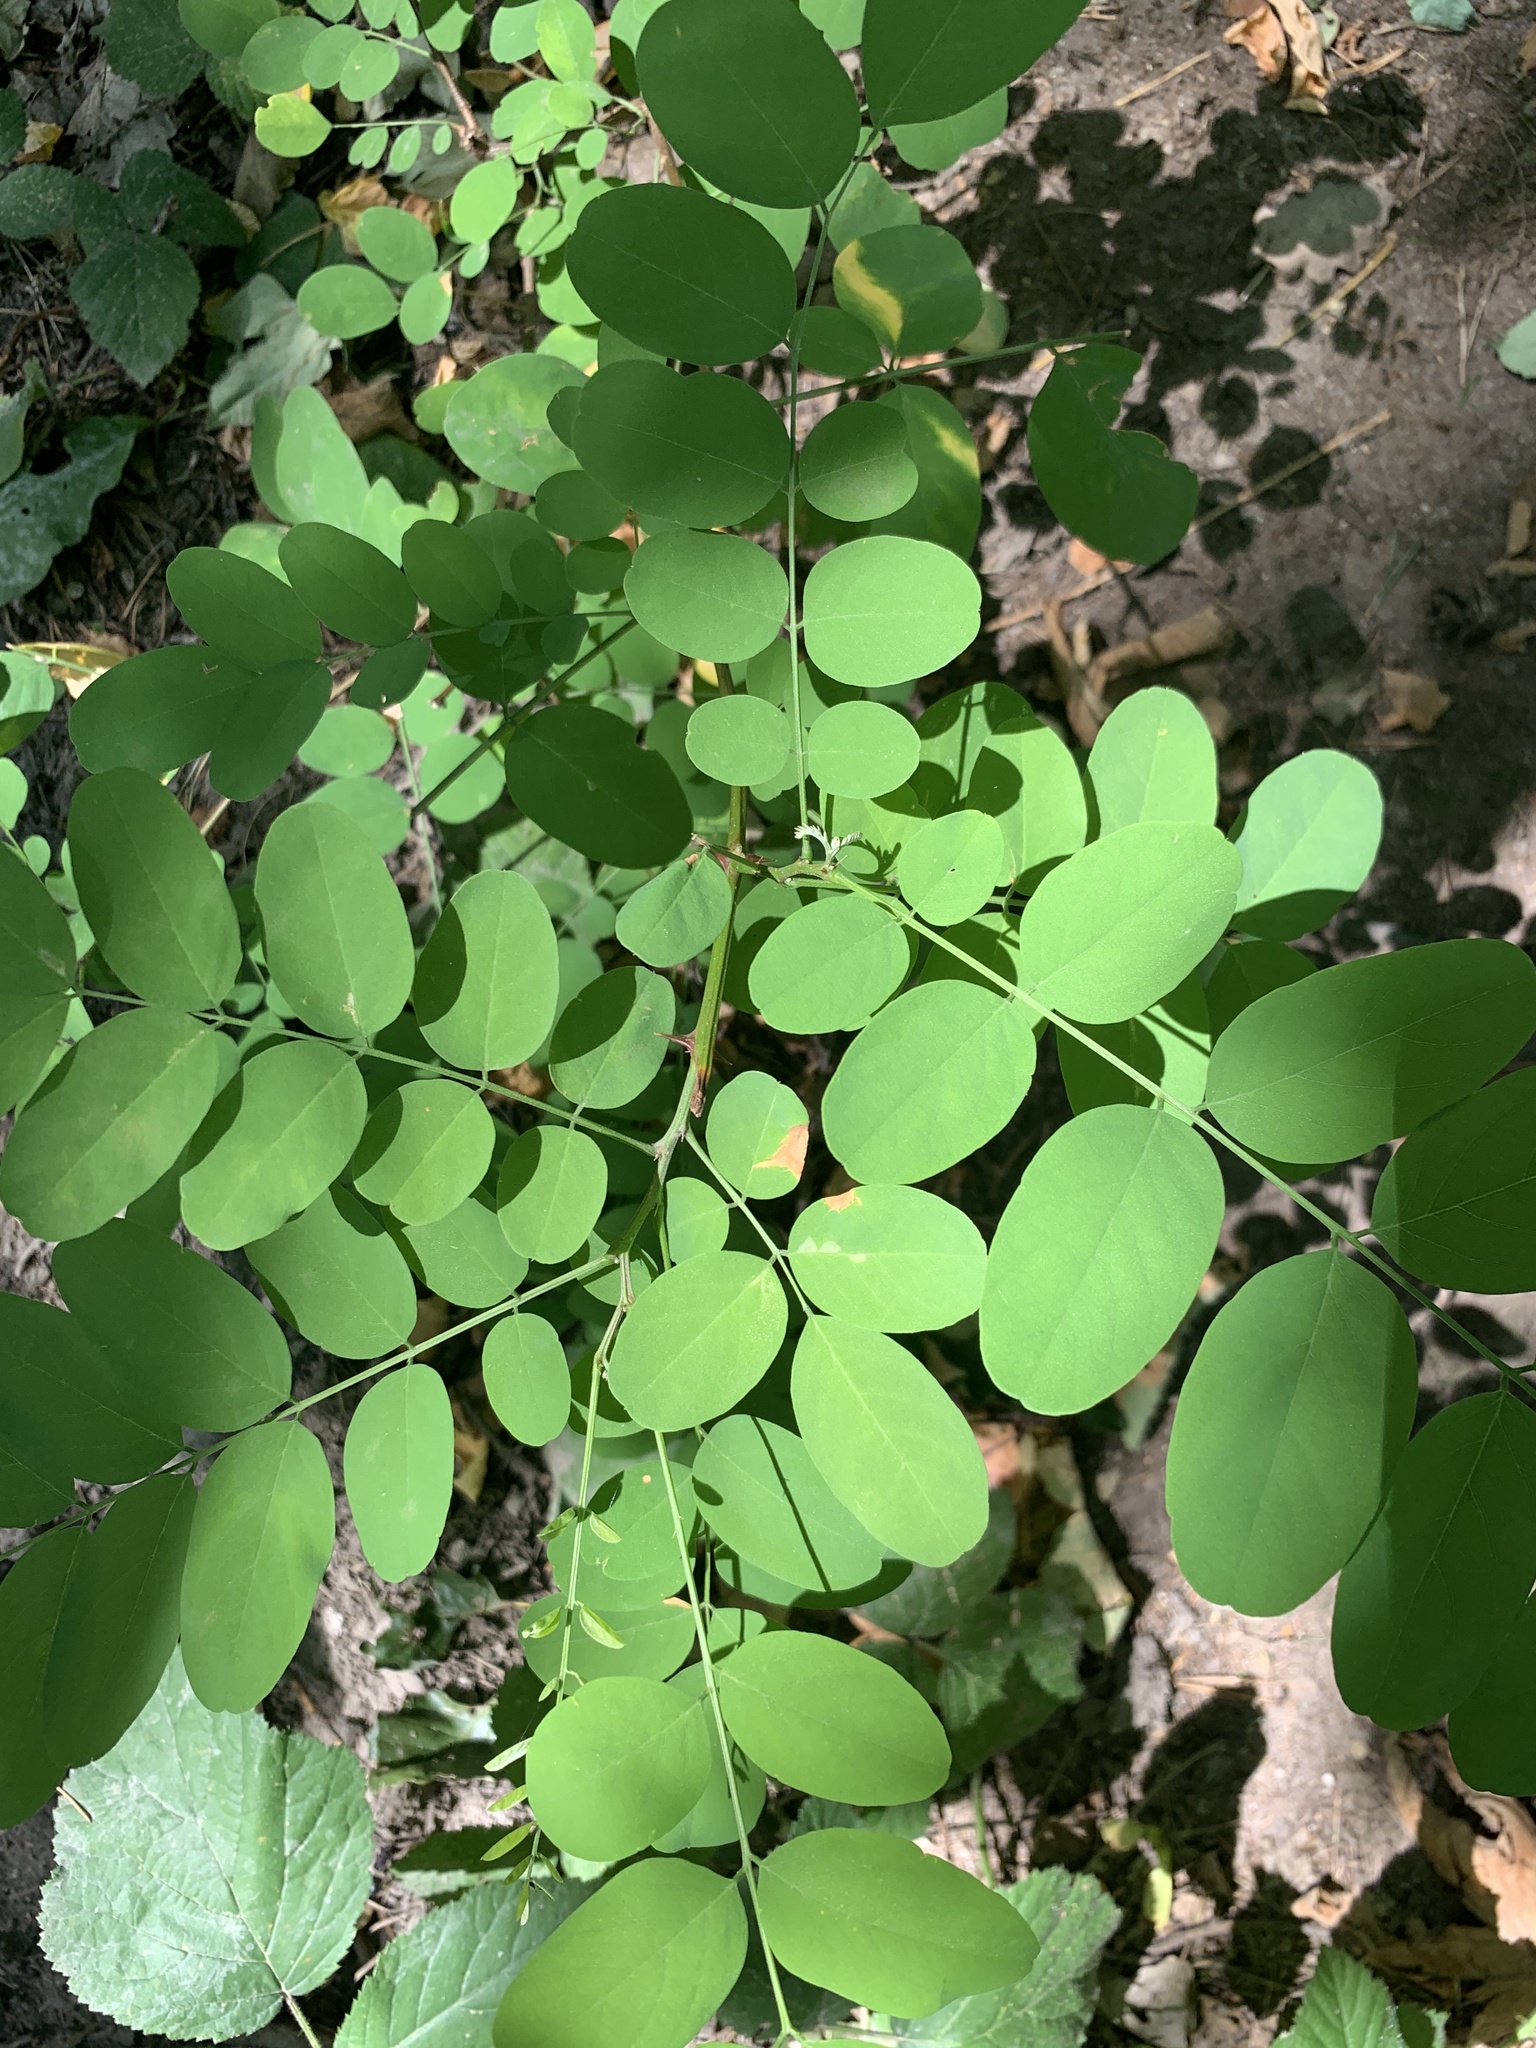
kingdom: Plantae
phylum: Tracheophyta
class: Magnoliopsida
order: Fabales
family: Fabaceae
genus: Robinia
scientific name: Robinia pseudoacacia
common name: Black locust
